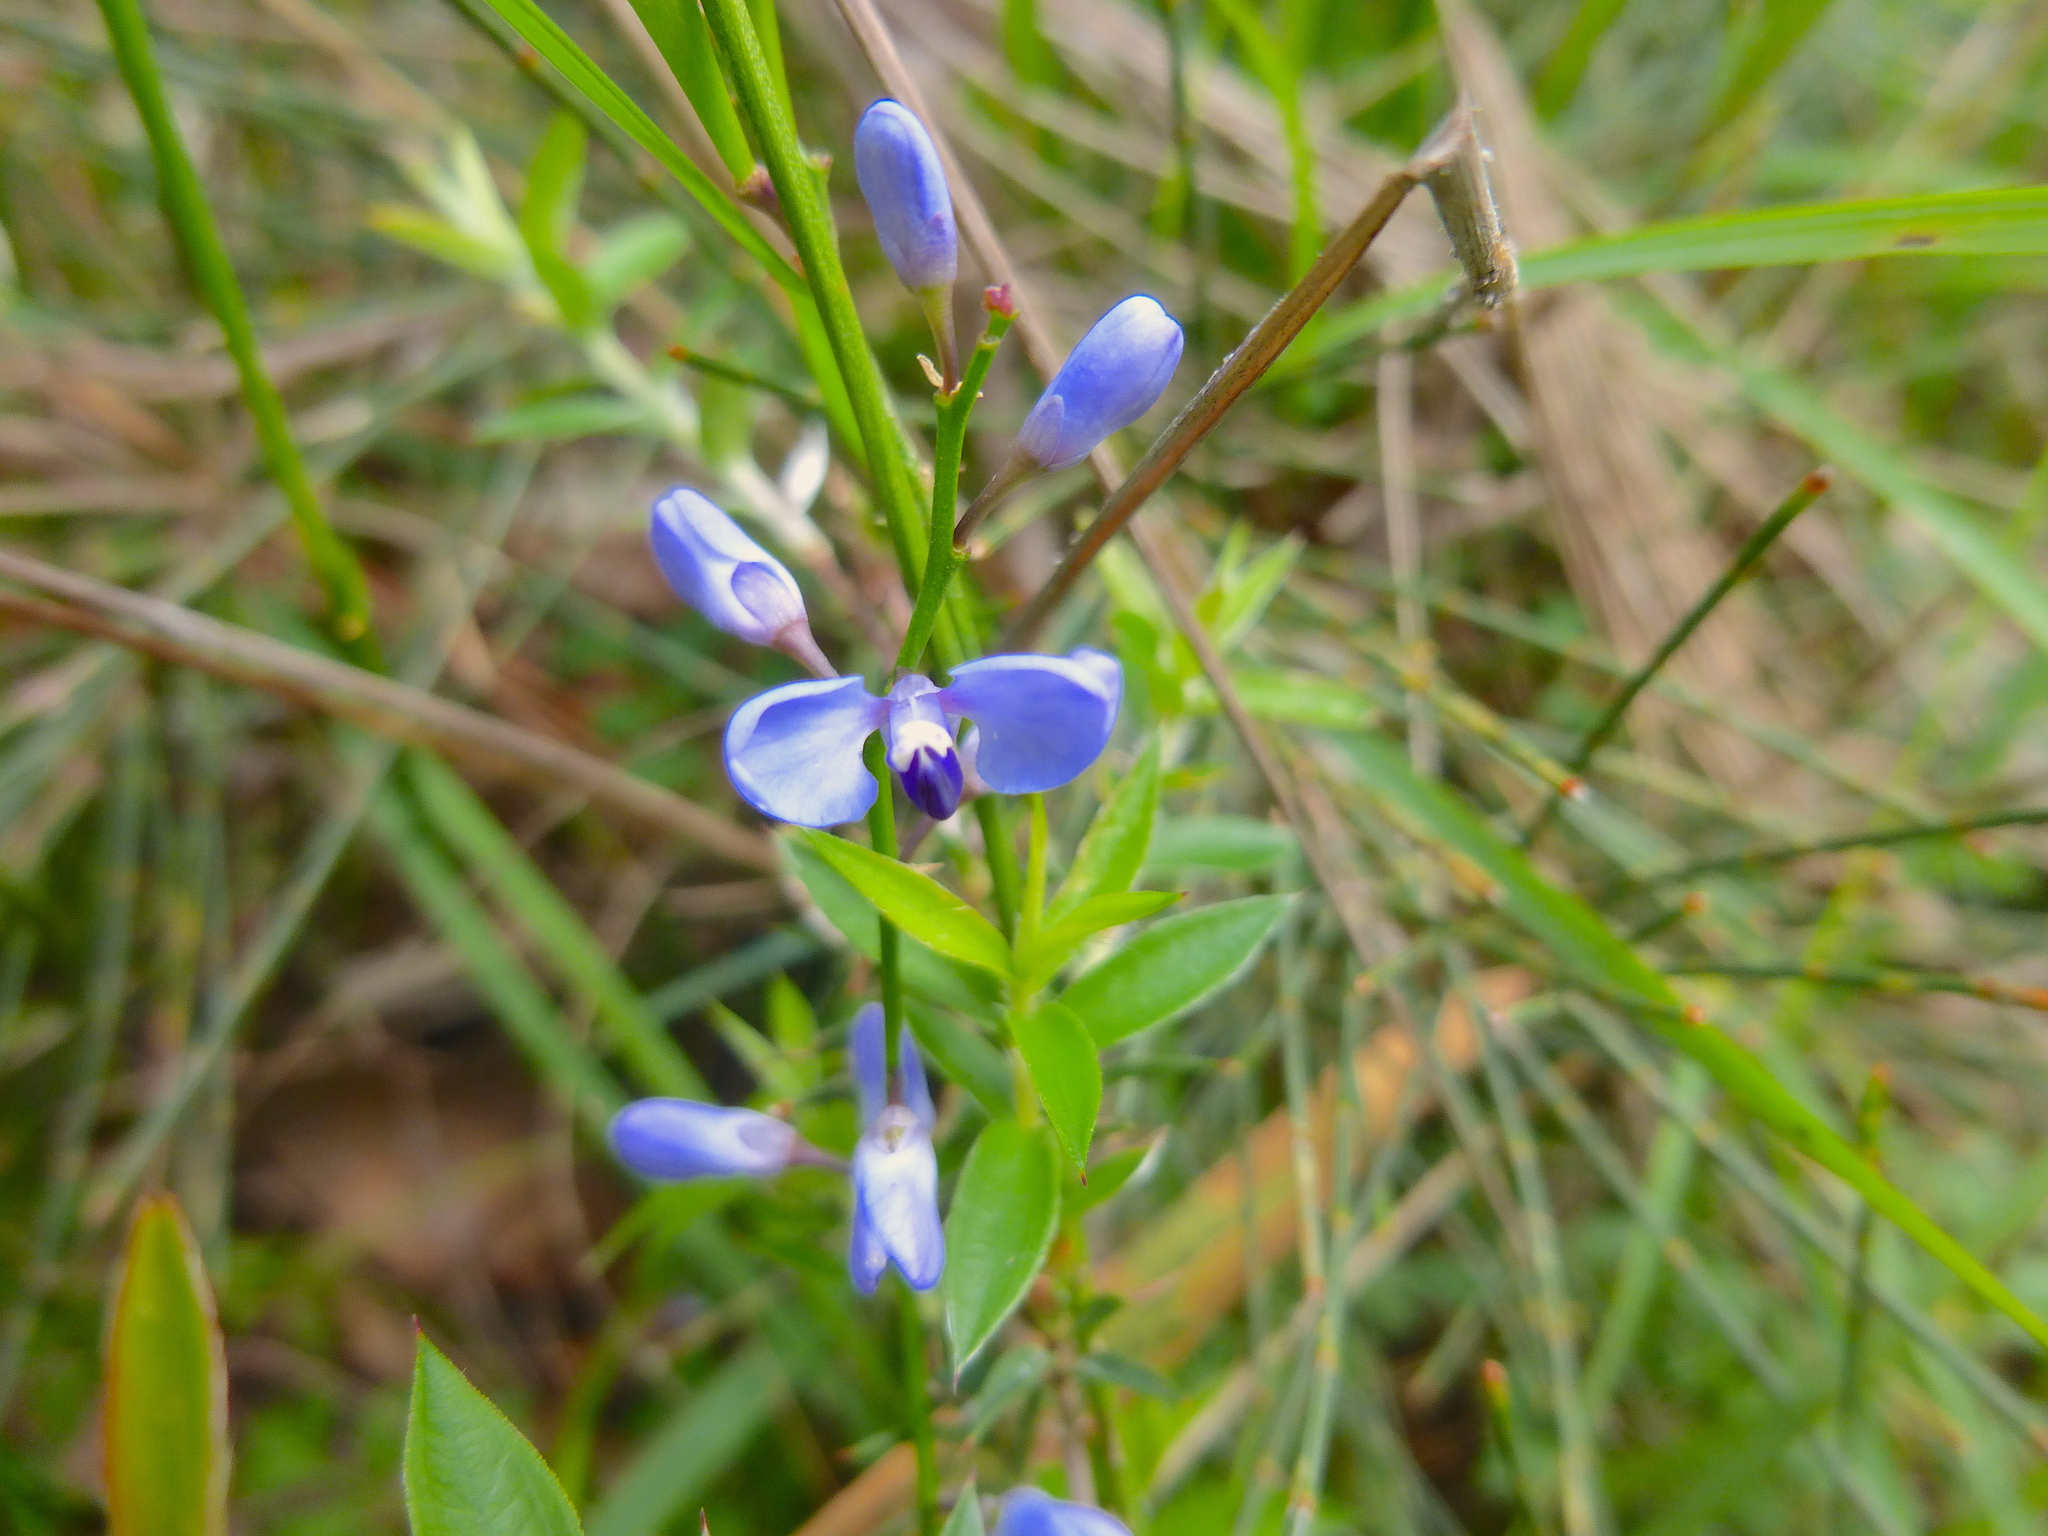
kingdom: Plantae
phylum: Tracheophyta
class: Magnoliopsida
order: Fabales
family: Polygalaceae
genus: Comesperma
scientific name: Comesperma volubile
